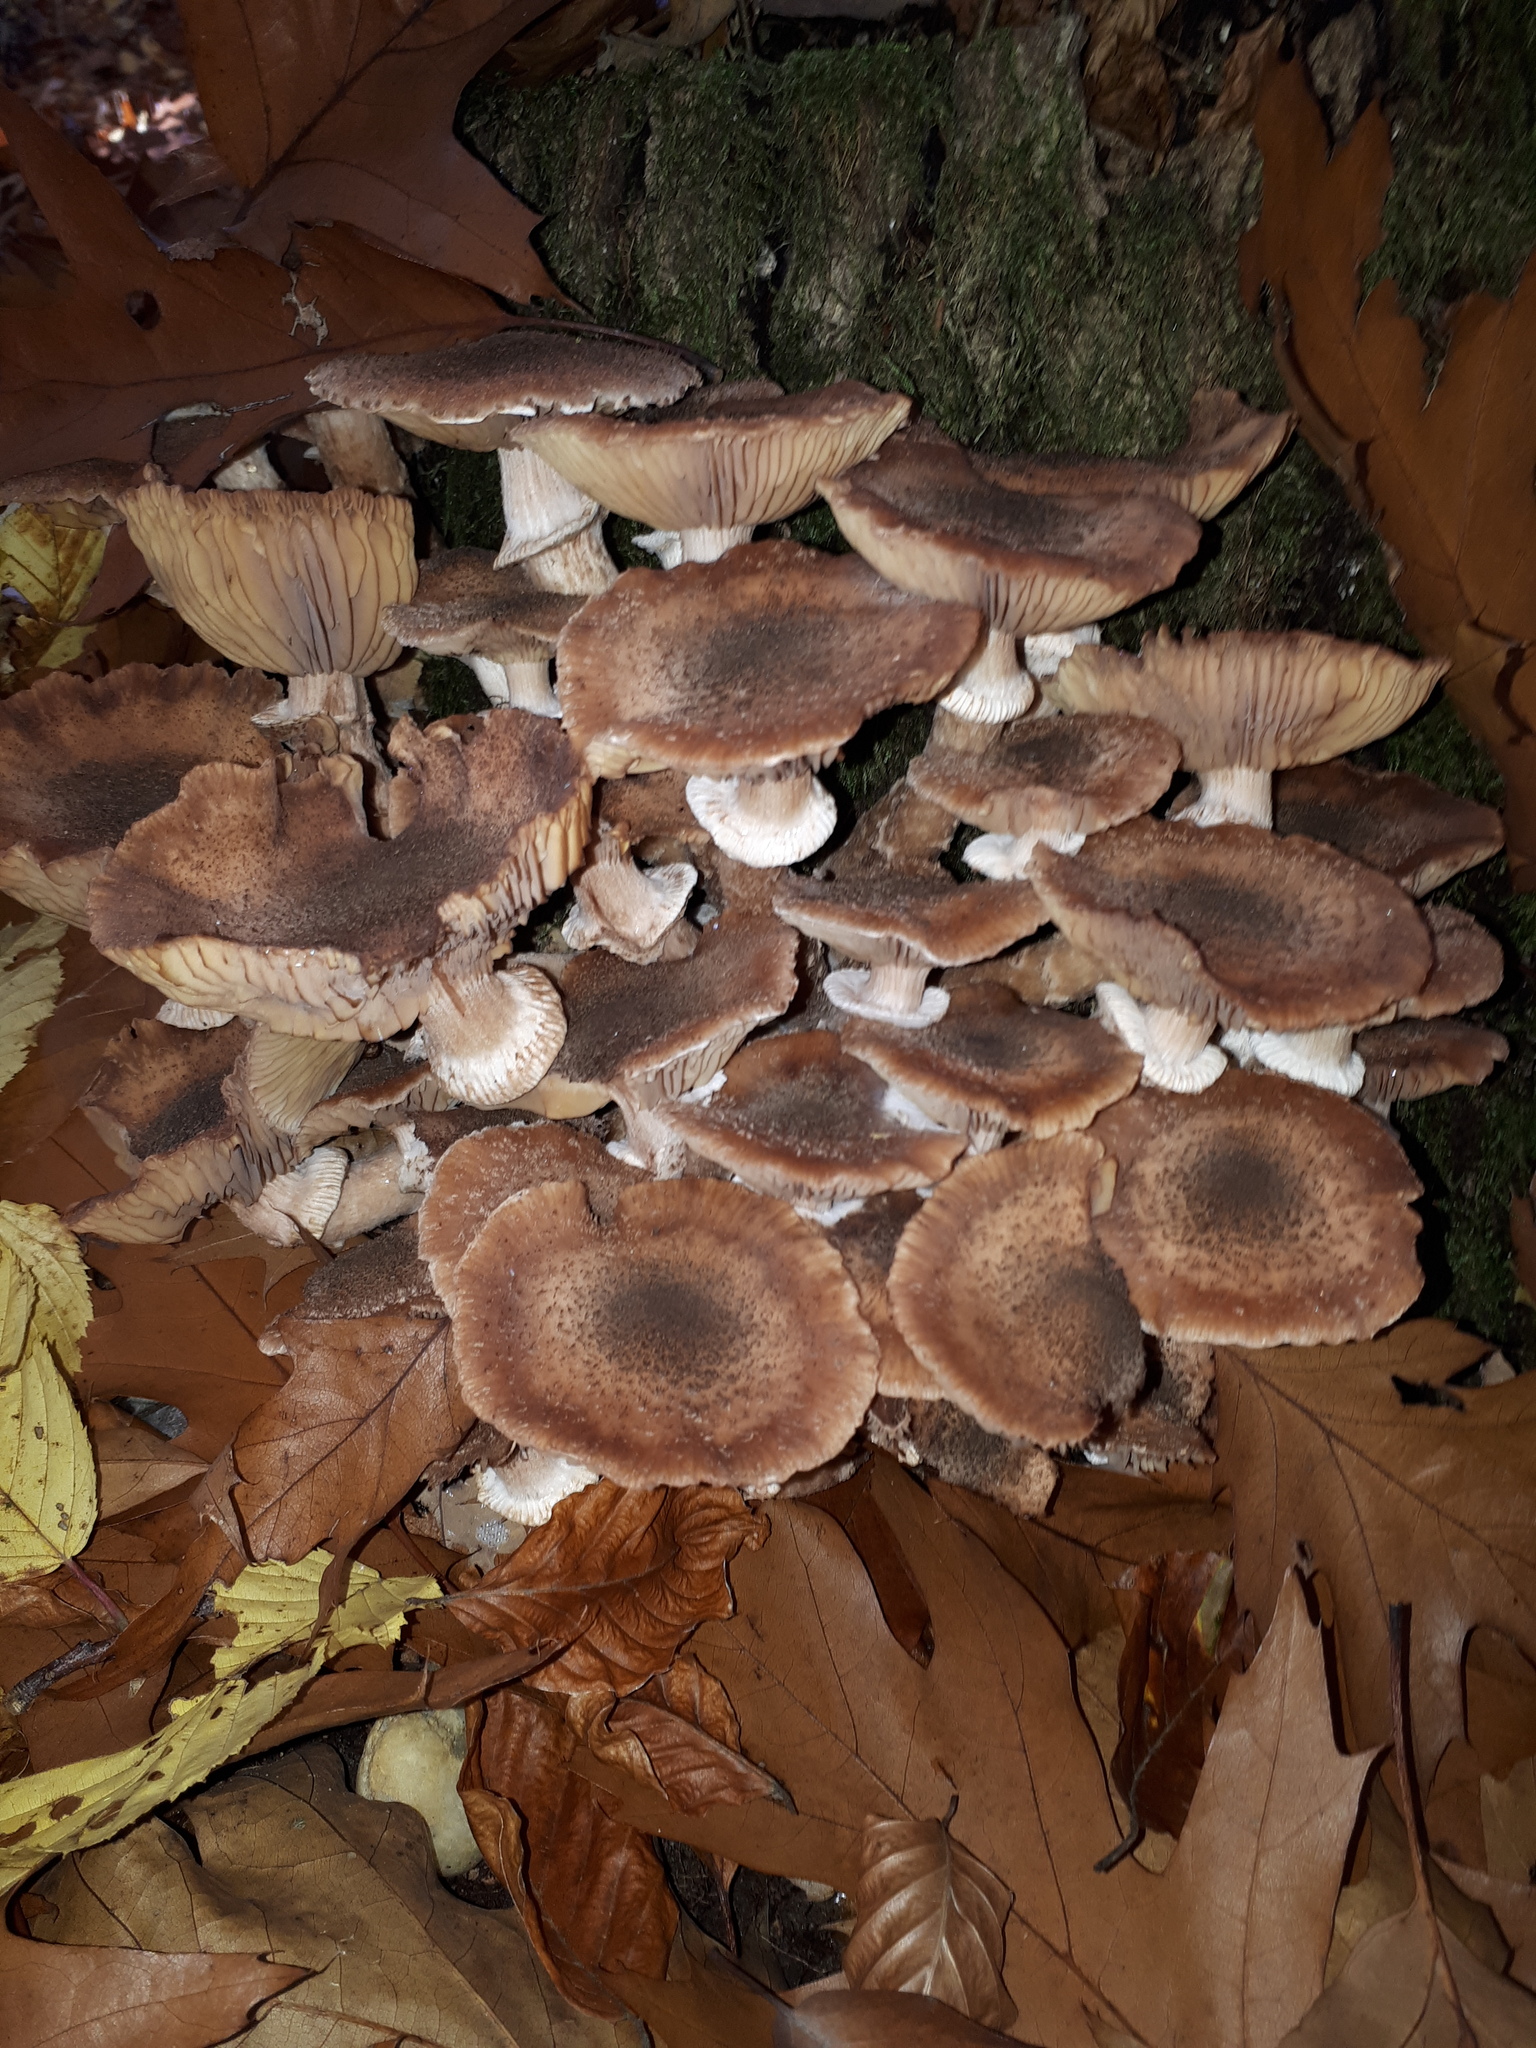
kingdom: Fungi
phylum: Basidiomycota
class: Agaricomycetes
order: Agaricales
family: Physalacriaceae
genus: Armillaria
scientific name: Armillaria ostoyae
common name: Dark honey fungus
